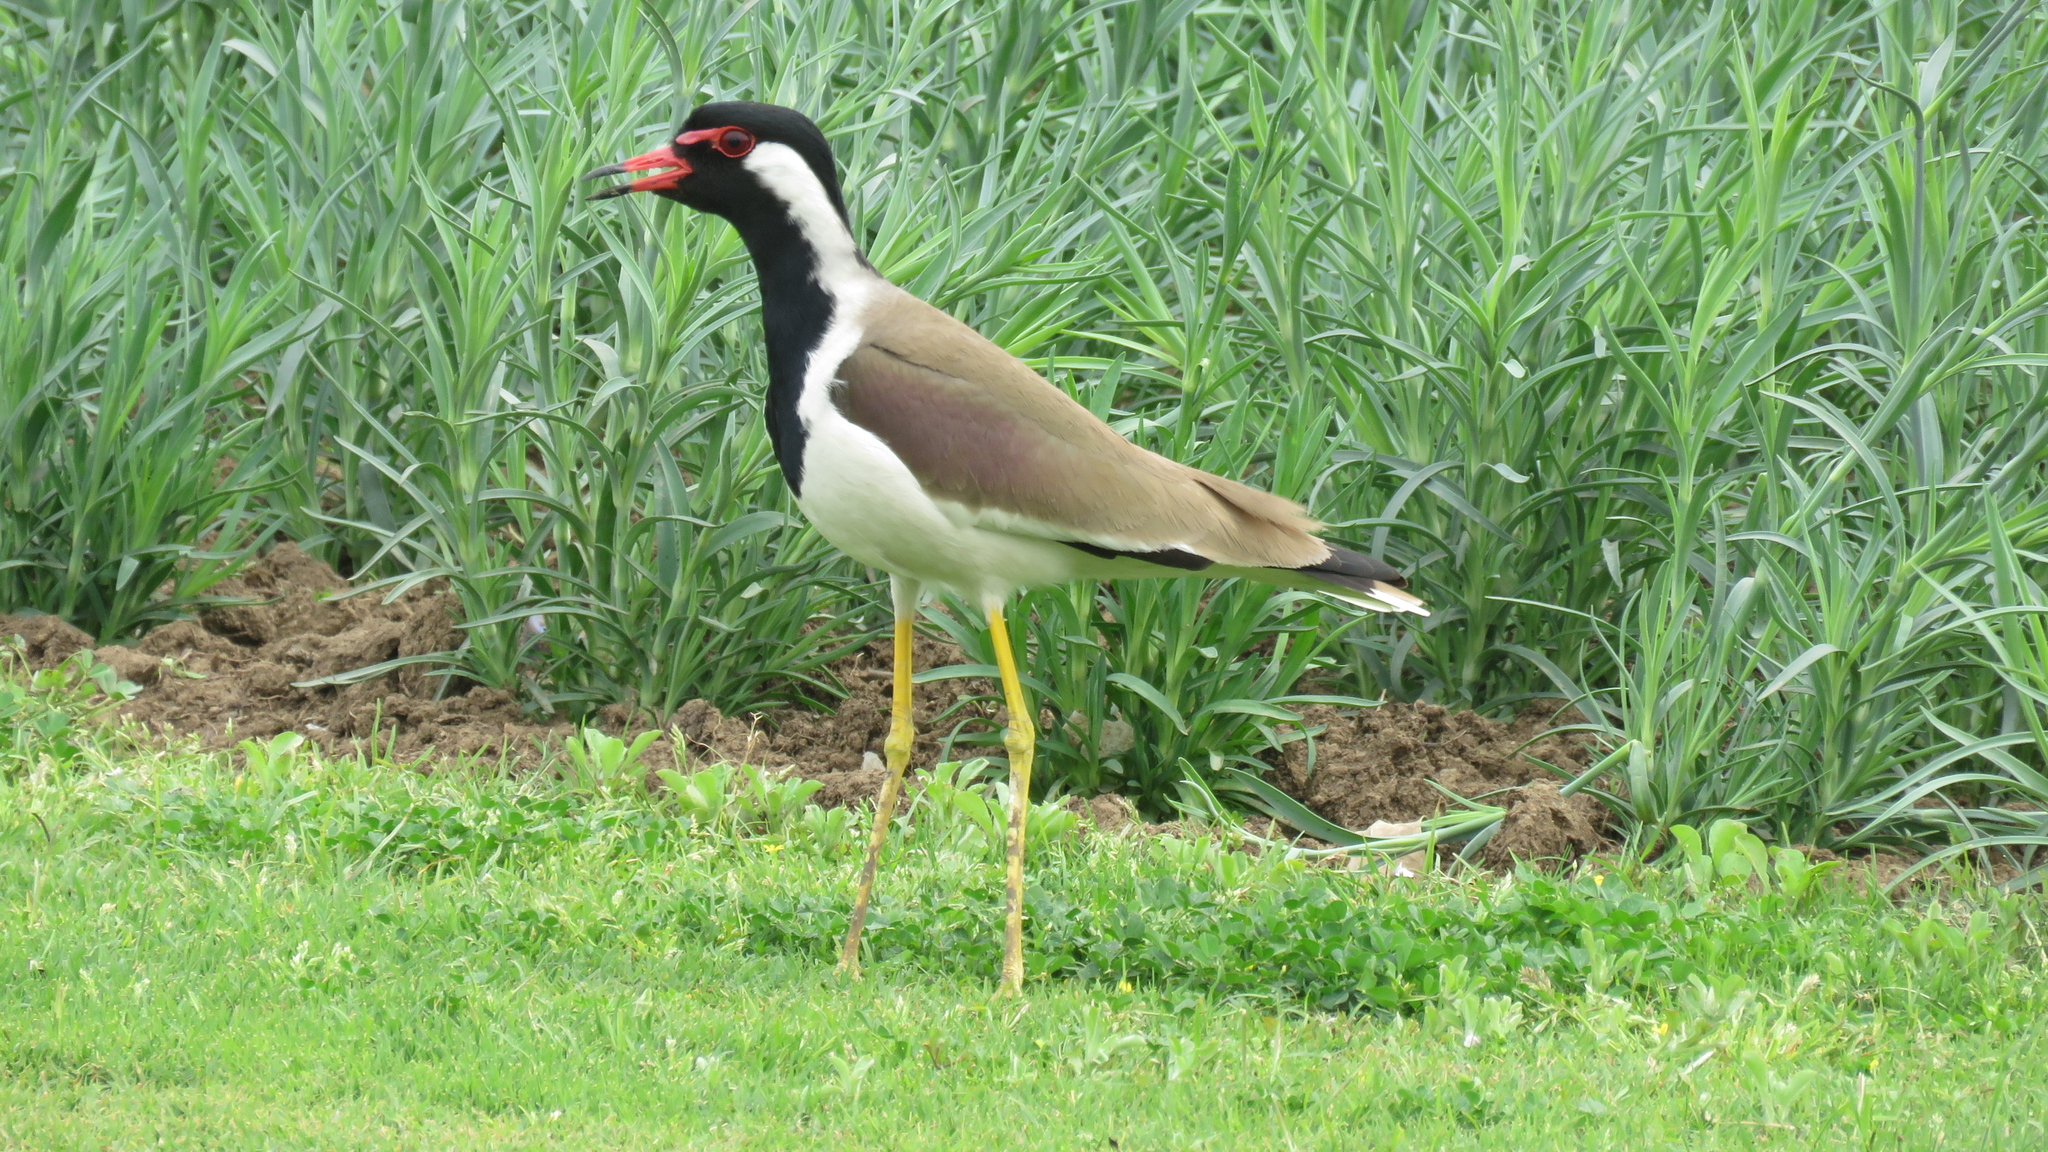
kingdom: Animalia
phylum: Chordata
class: Aves
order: Charadriiformes
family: Charadriidae
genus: Vanellus
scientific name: Vanellus indicus
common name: Red-wattled lapwing
